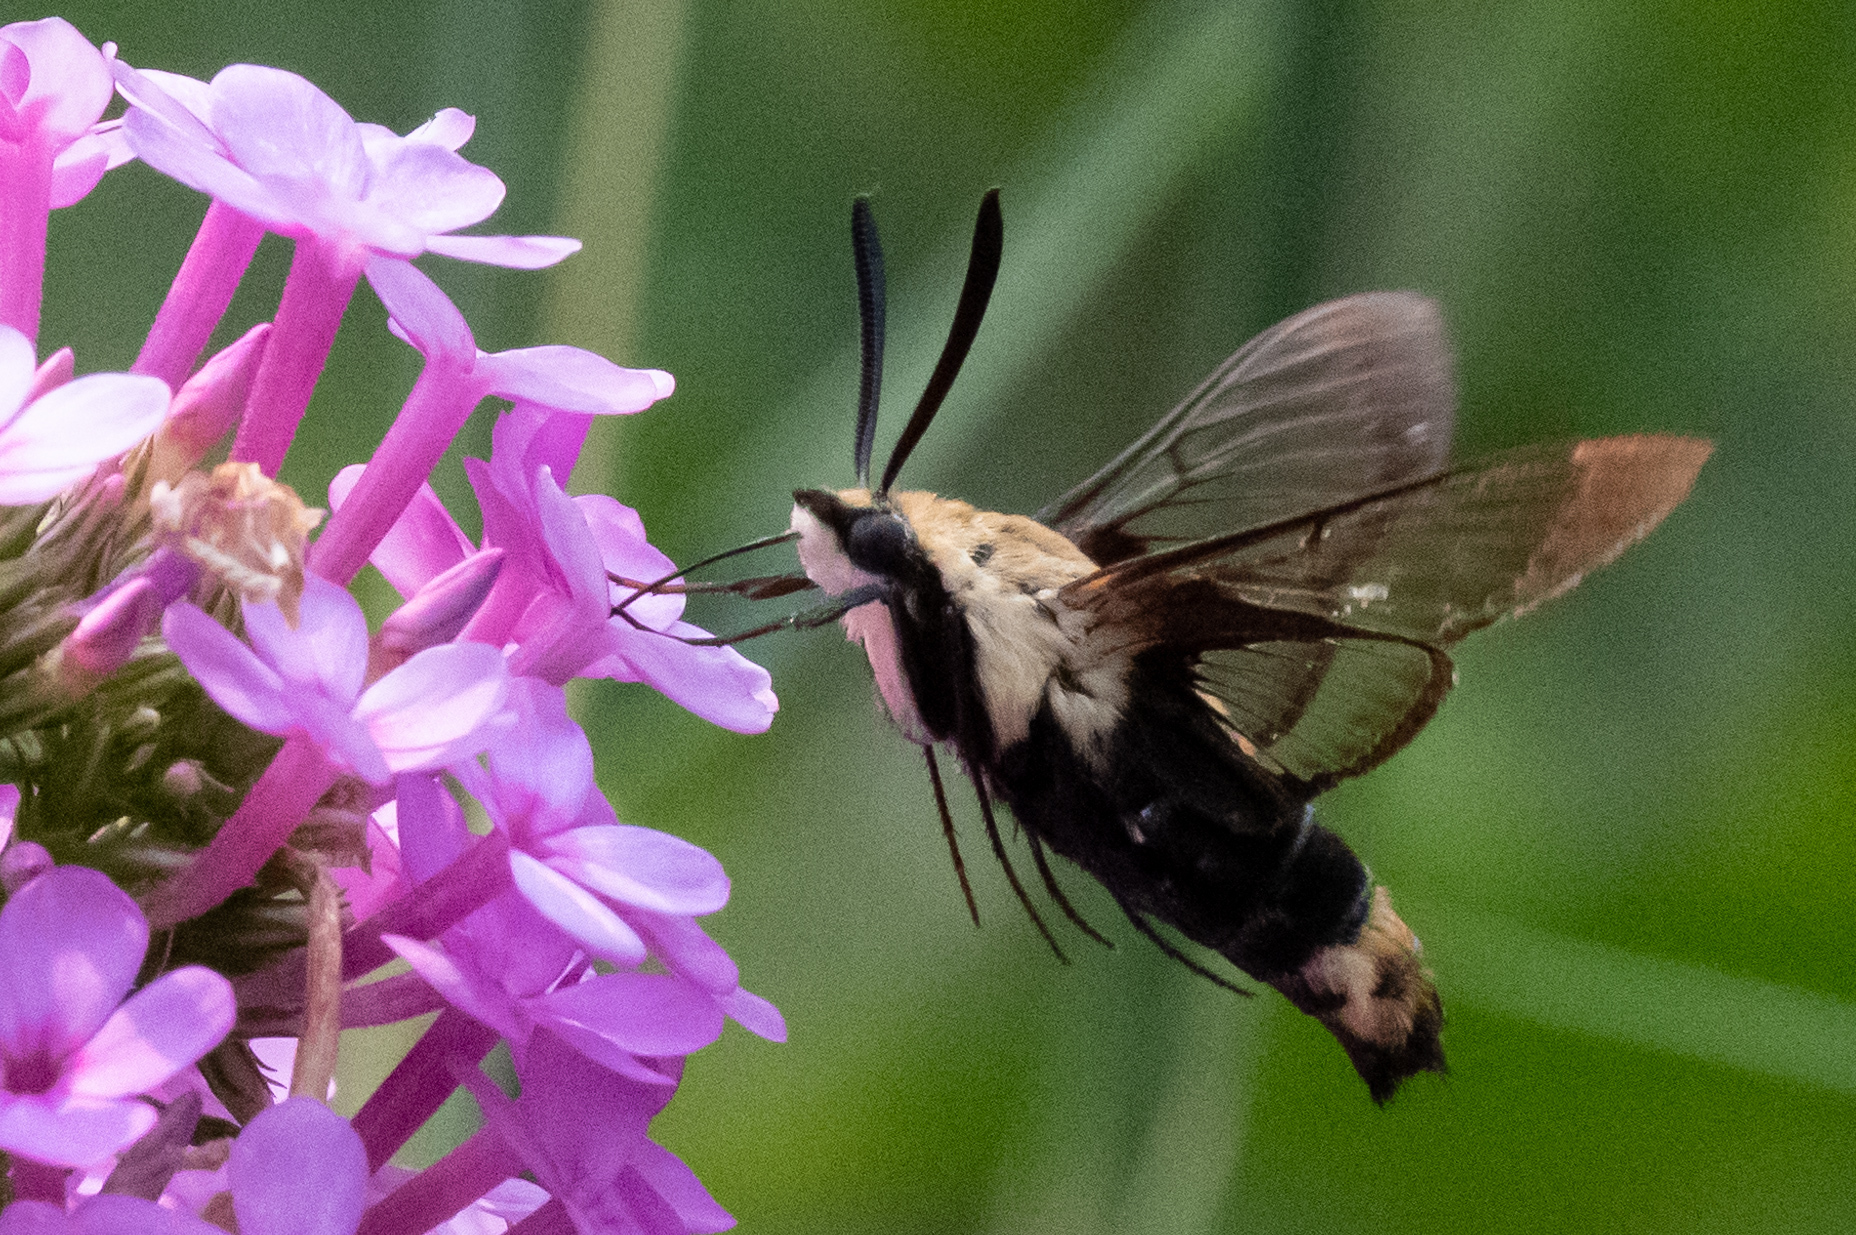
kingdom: Animalia
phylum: Arthropoda
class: Insecta
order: Lepidoptera
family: Sphingidae
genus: Hemaris
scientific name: Hemaris diffinis
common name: Bumblebee moth
